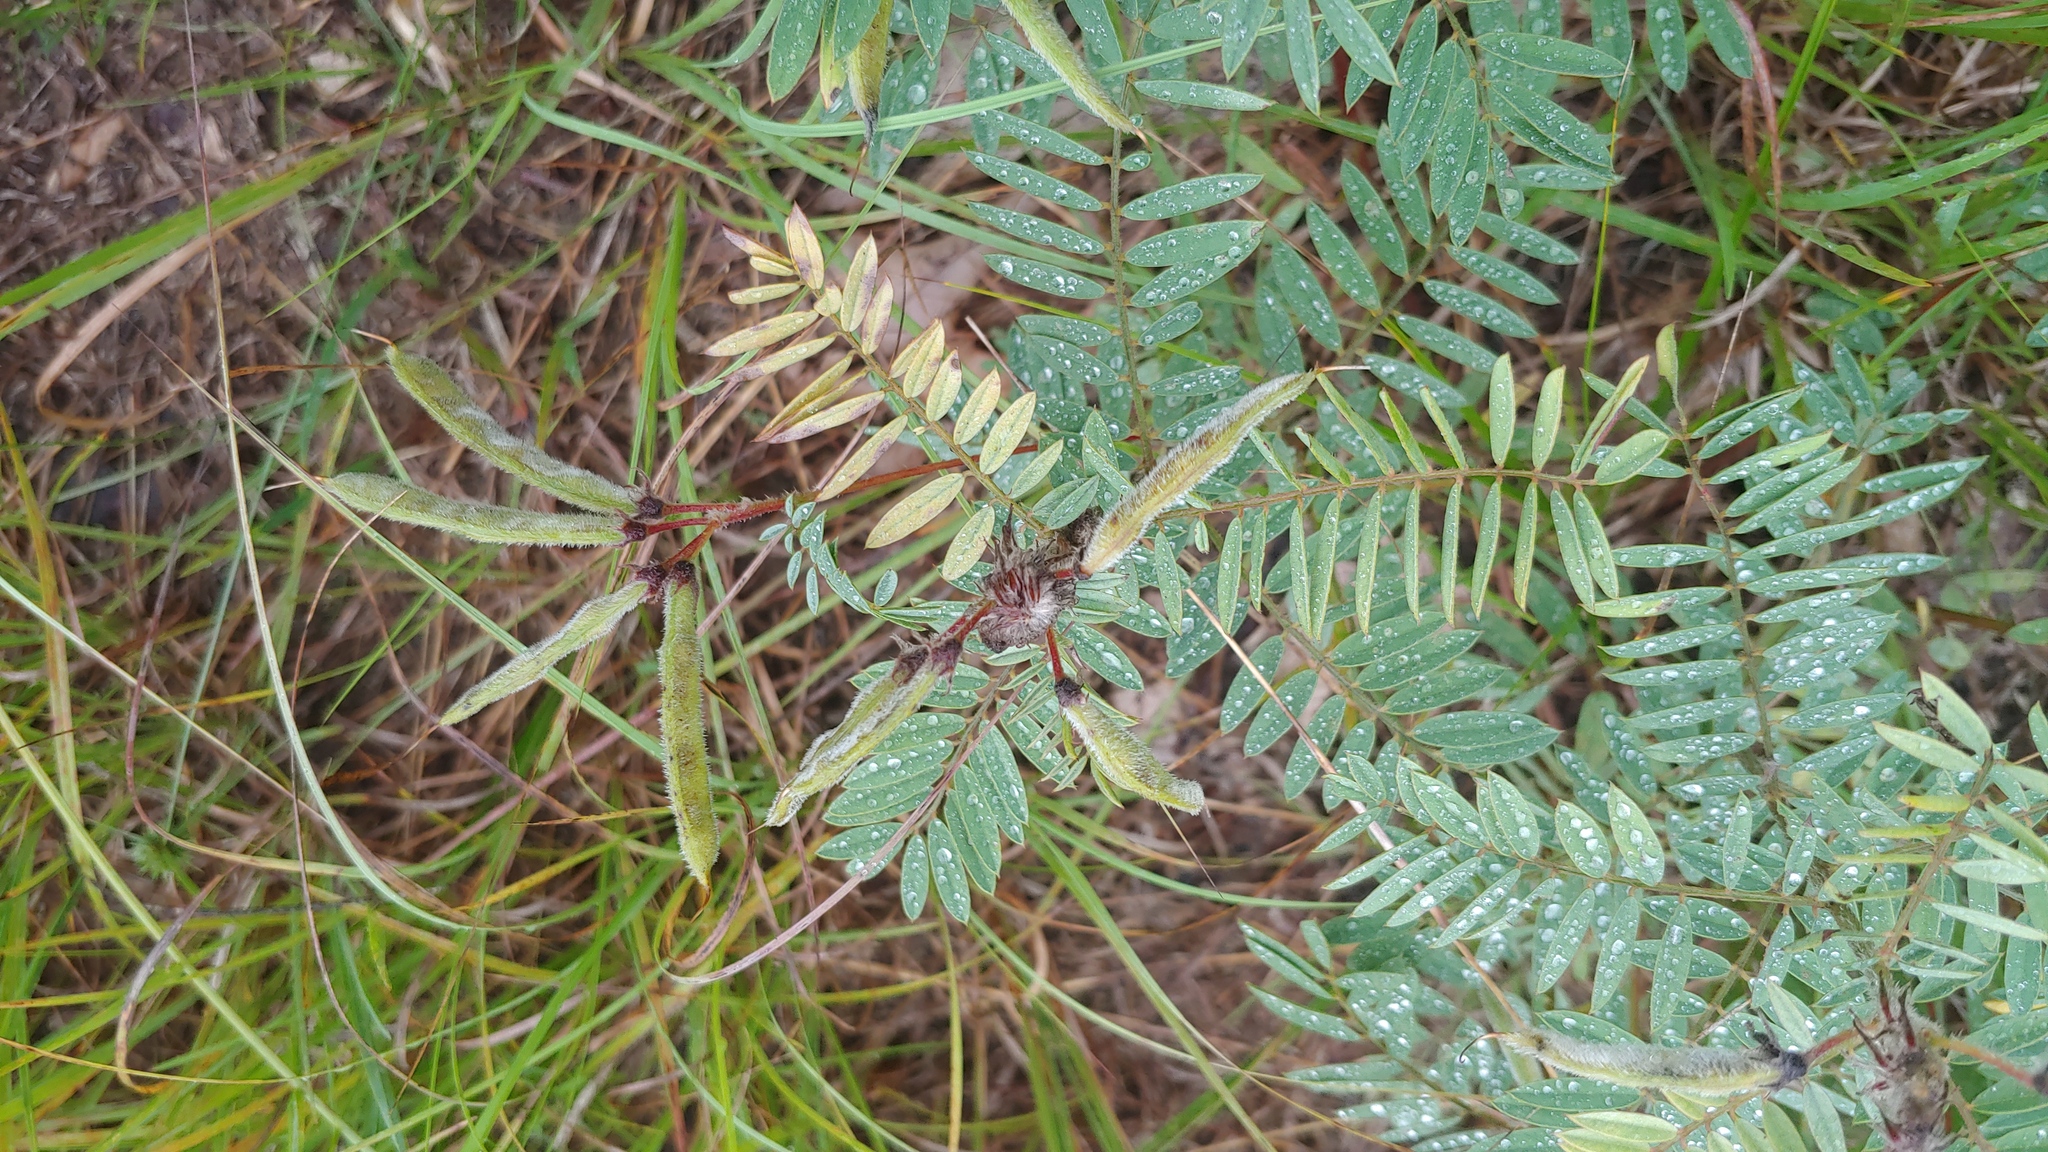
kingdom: Plantae
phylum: Tracheophyta
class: Magnoliopsida
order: Fabales
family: Fabaceae
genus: Tephrosia
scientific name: Tephrosia virginiana
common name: Rabbit-pea
